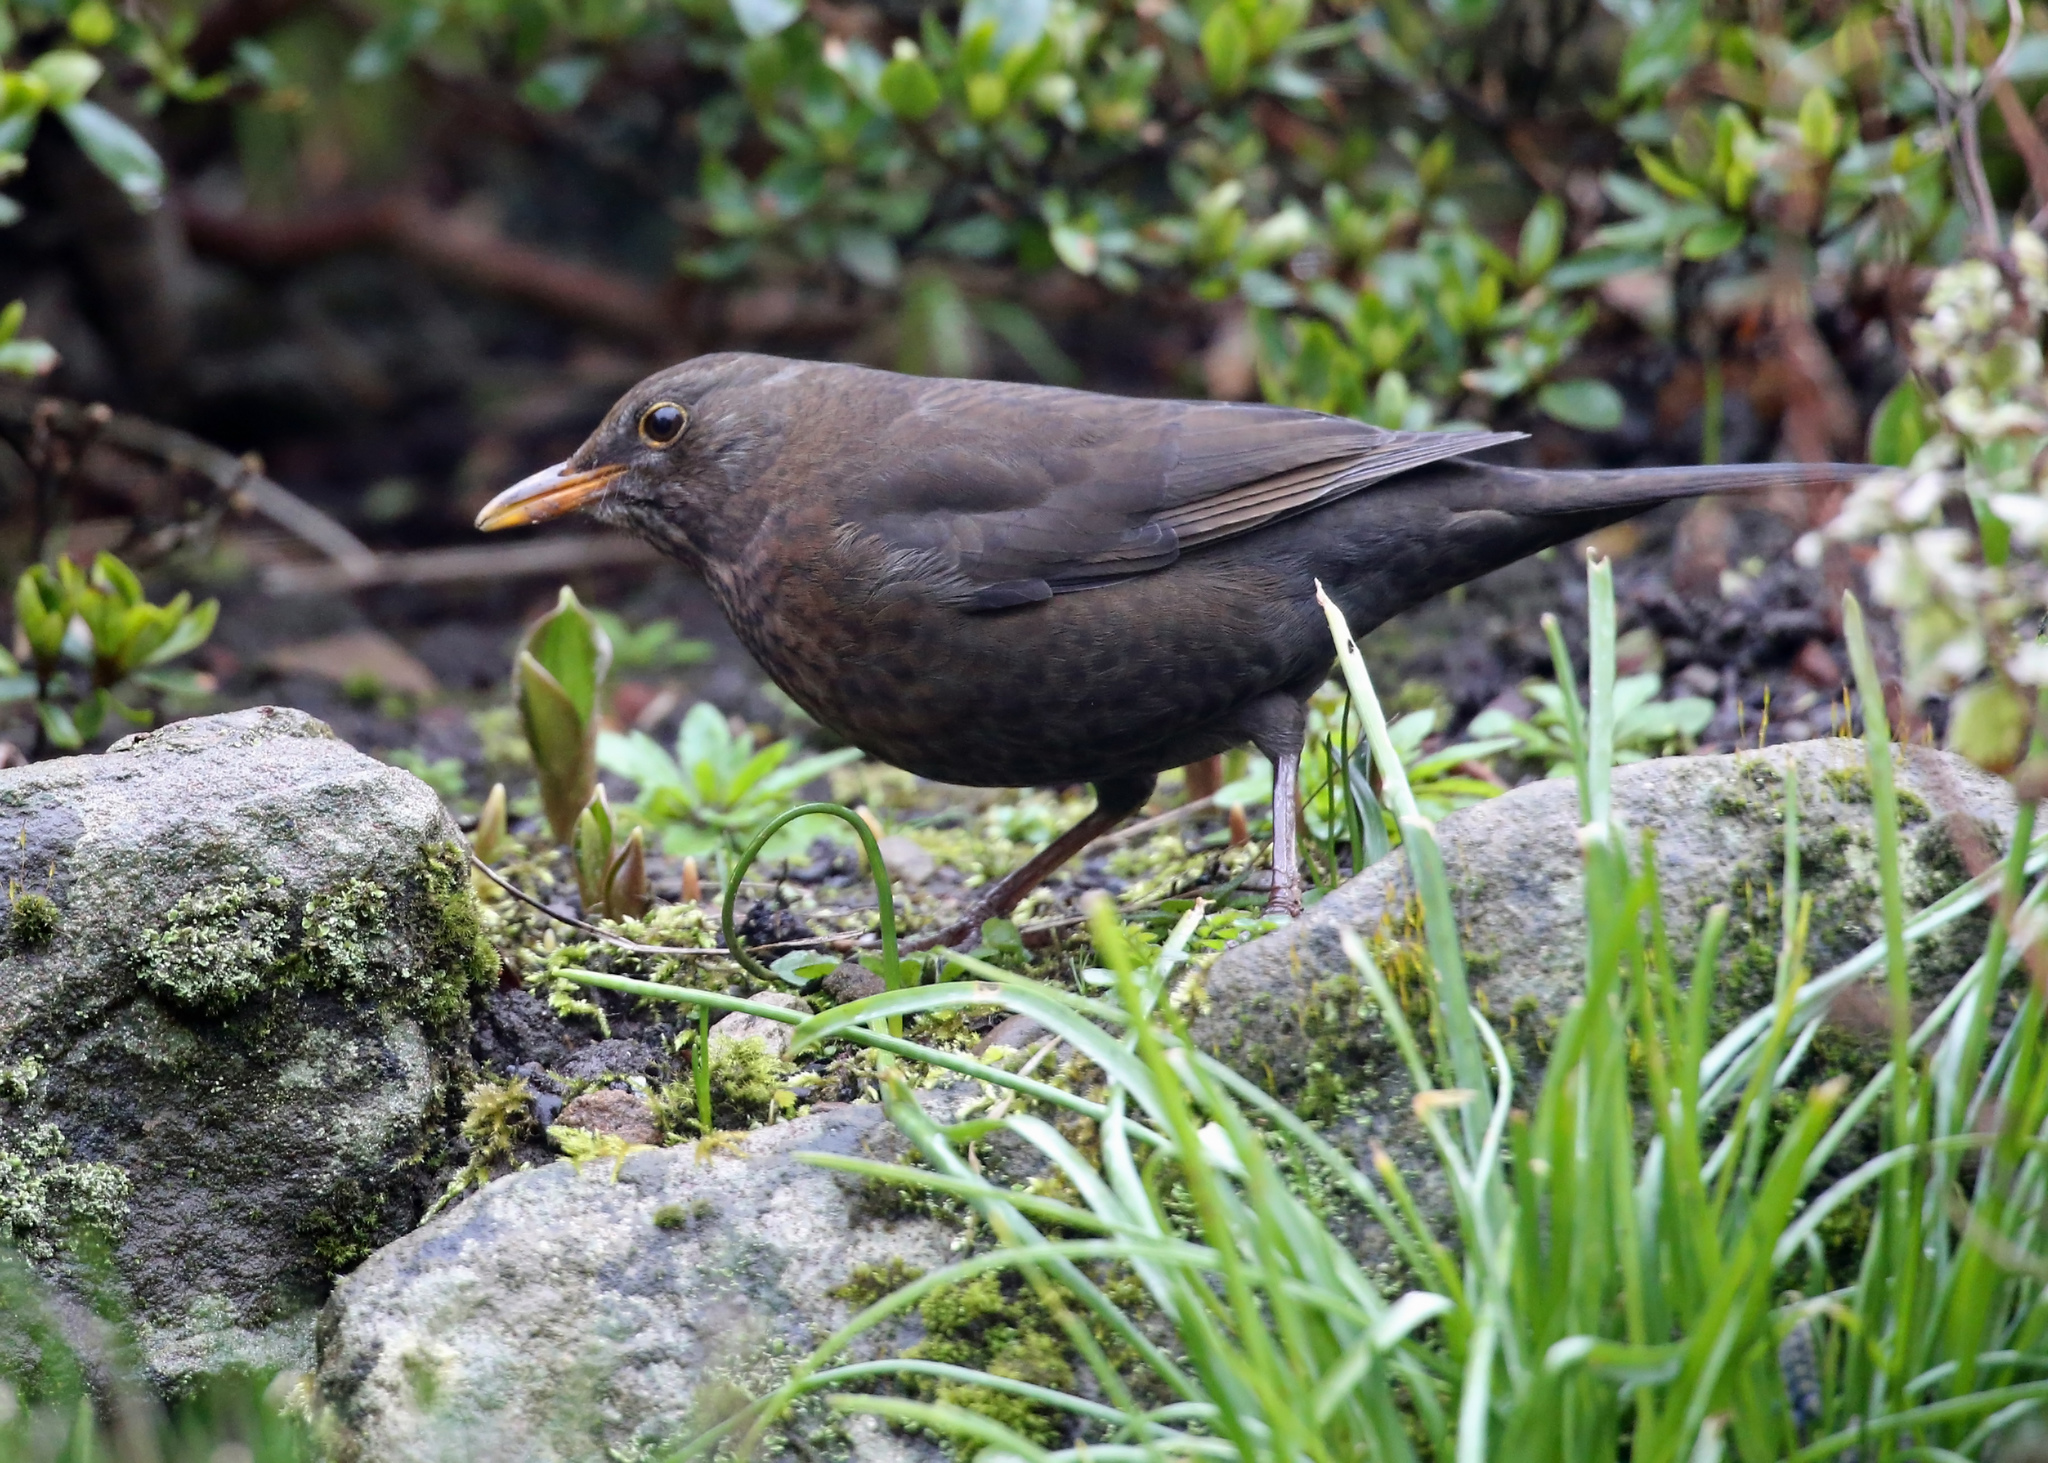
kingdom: Animalia
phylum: Chordata
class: Aves
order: Passeriformes
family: Turdidae
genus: Turdus
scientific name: Turdus merula
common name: Common blackbird
